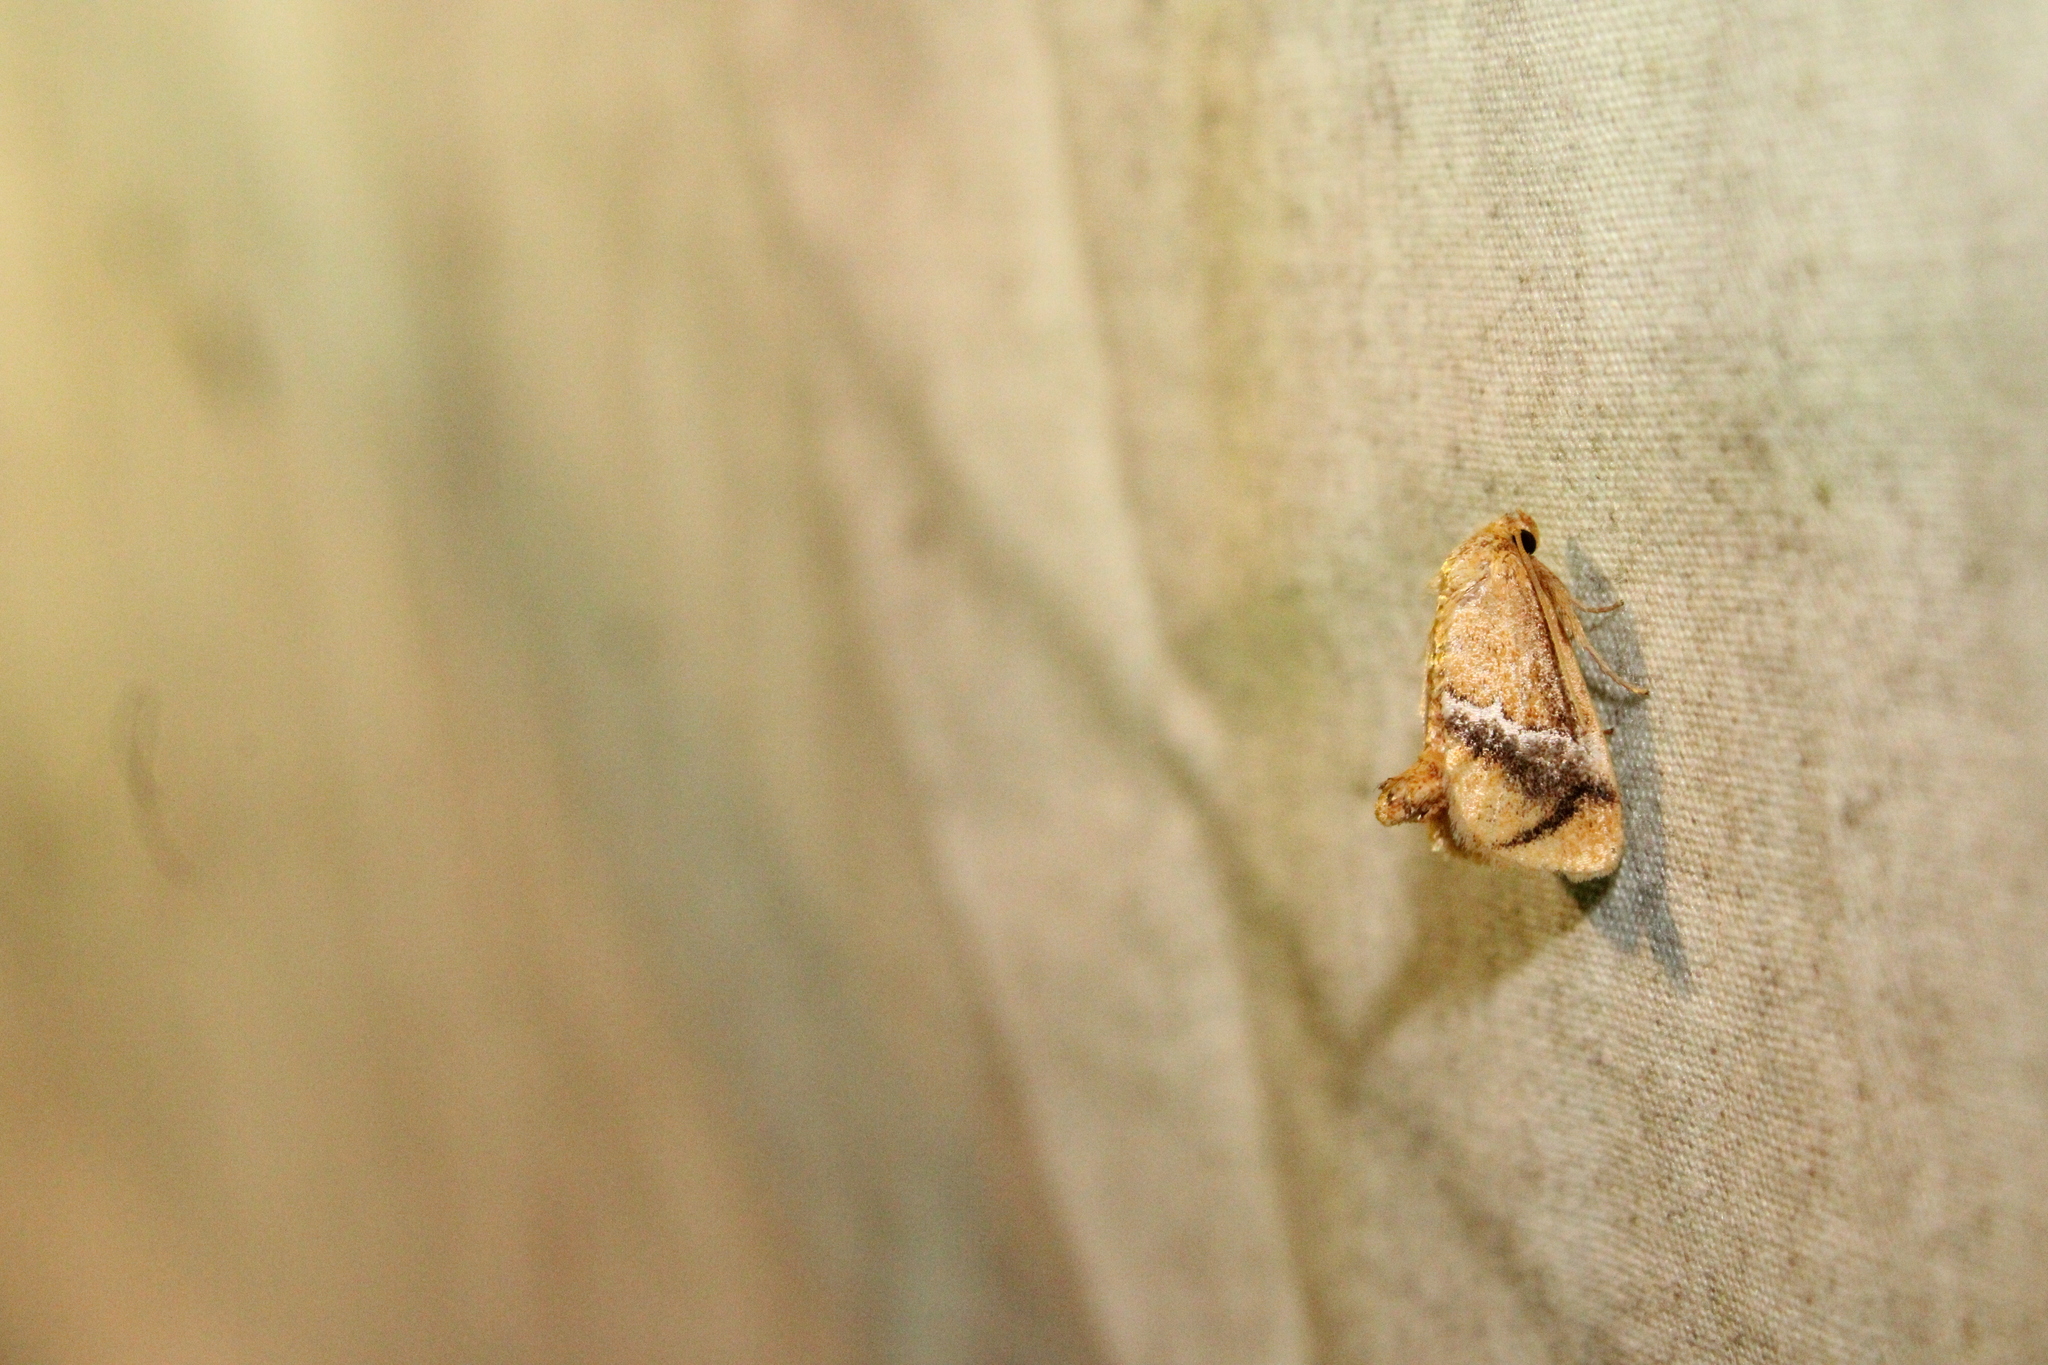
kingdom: Animalia
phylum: Arthropoda
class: Insecta
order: Lepidoptera
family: Limacodidae
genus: Lithacodes
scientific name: Lithacodes fasciola
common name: Yellow-shouldered slug moth
